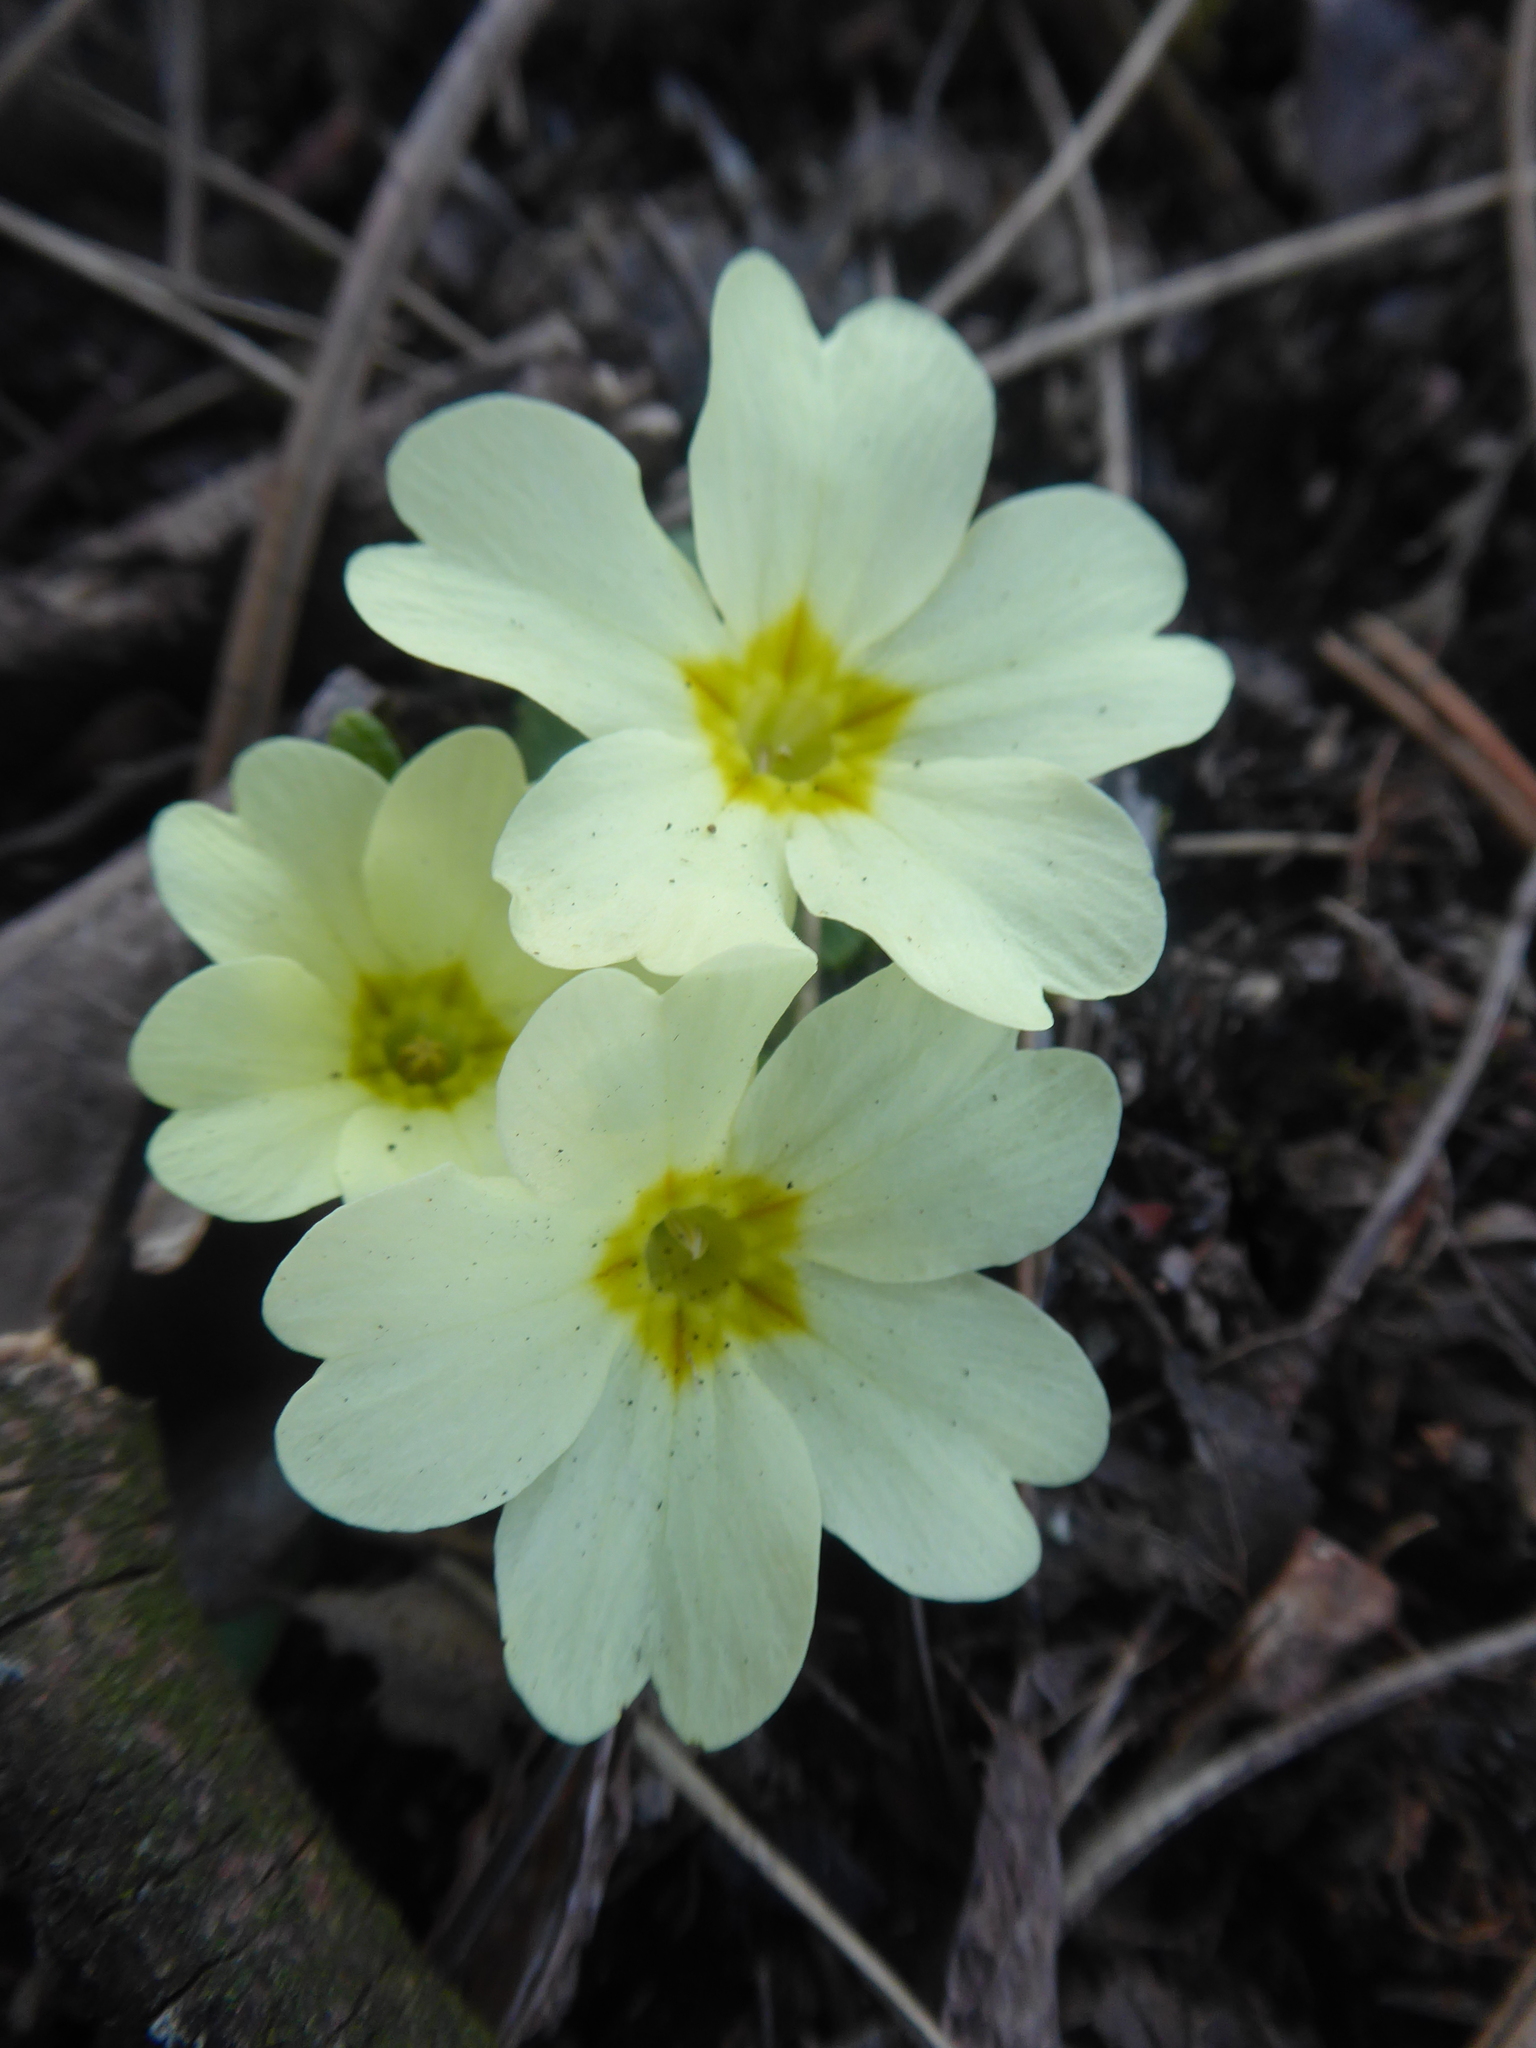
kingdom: Plantae
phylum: Tracheophyta
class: Magnoliopsida
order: Ericales
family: Primulaceae
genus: Primula
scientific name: Primula vulgaris
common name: Primrose
